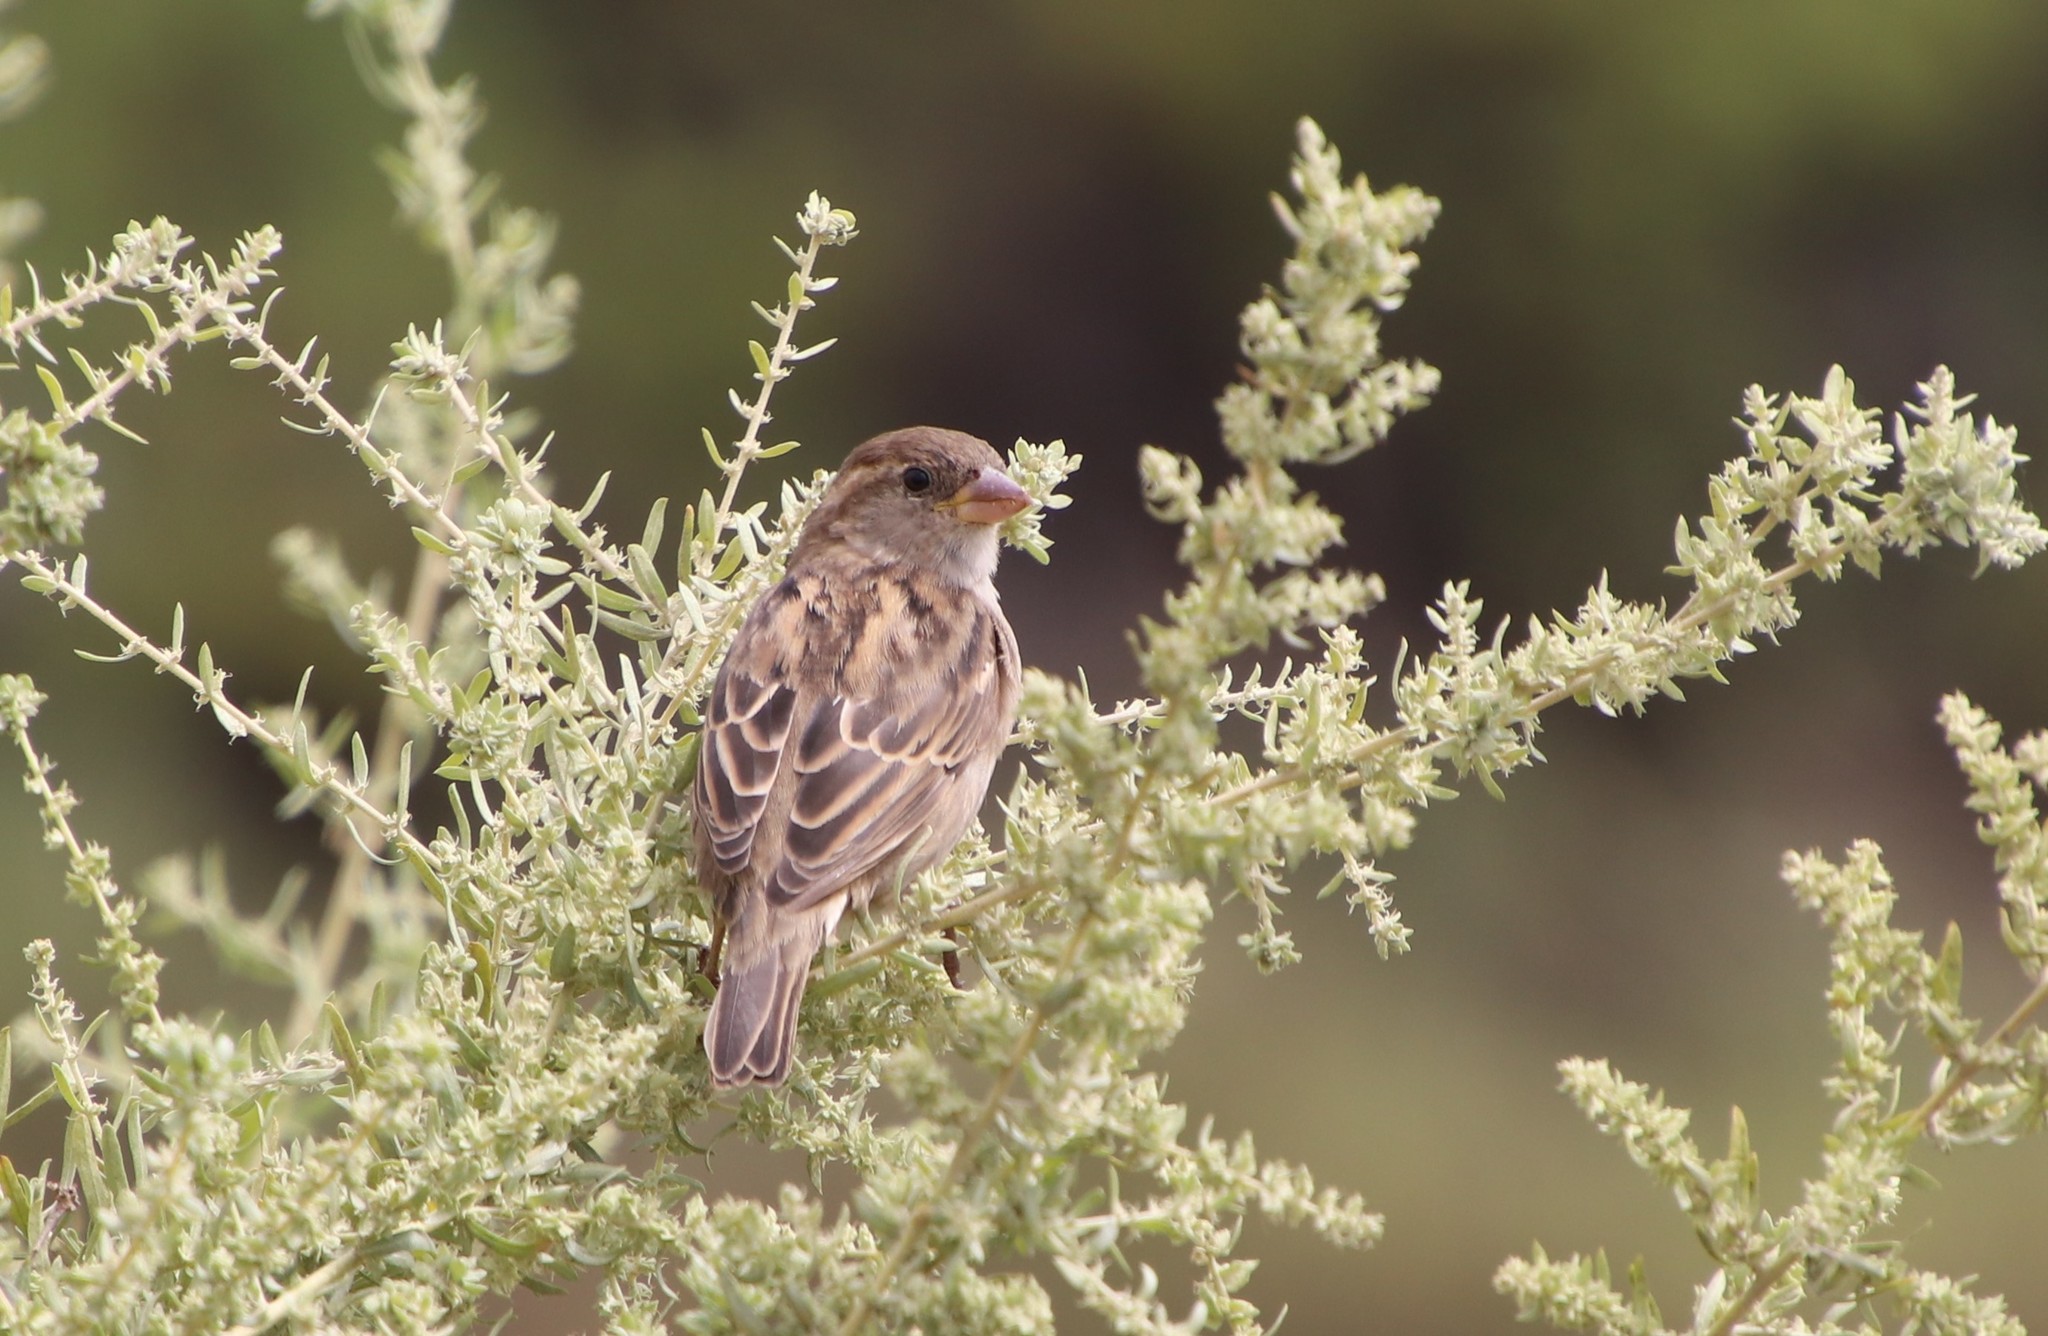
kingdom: Animalia
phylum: Chordata
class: Aves
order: Passeriformes
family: Passeridae
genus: Passer
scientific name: Passer domesticus
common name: House sparrow
